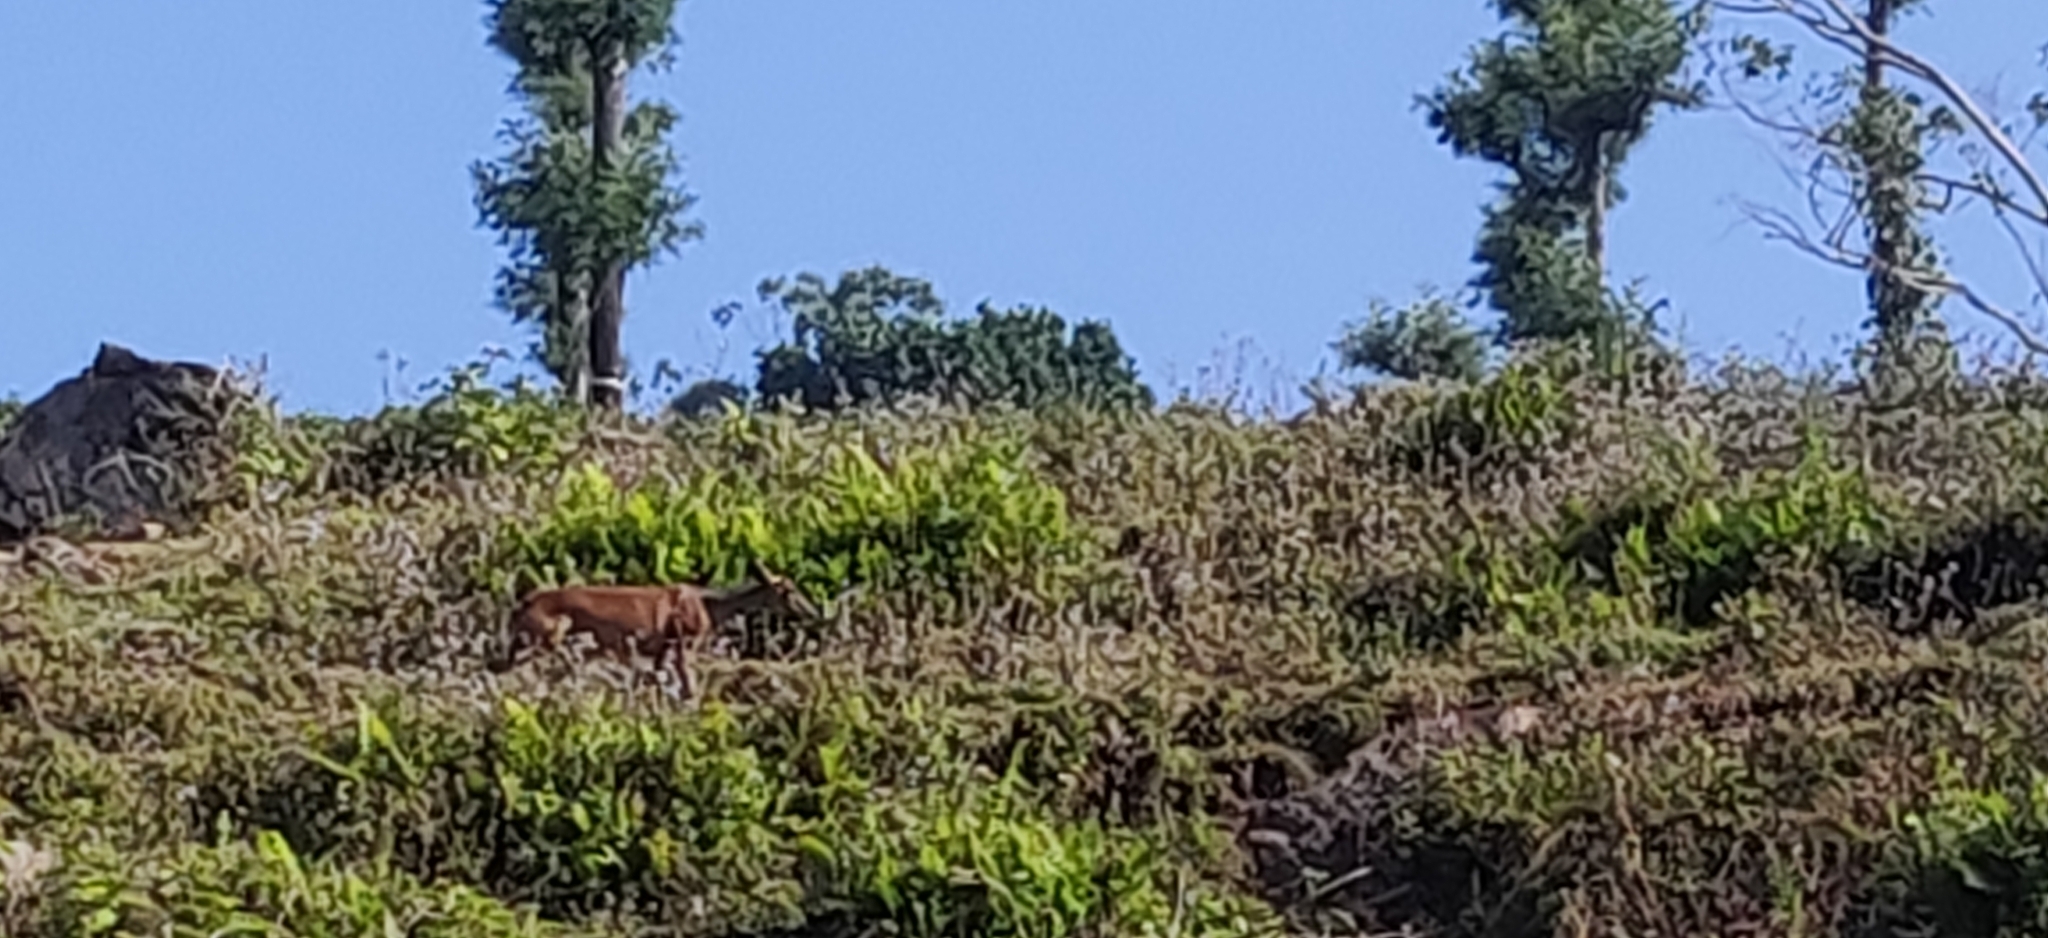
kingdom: Animalia
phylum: Chordata
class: Mammalia
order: Artiodactyla
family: Cervidae
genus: Muntiacus
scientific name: Muntiacus muntjak
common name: Indian muntjac
